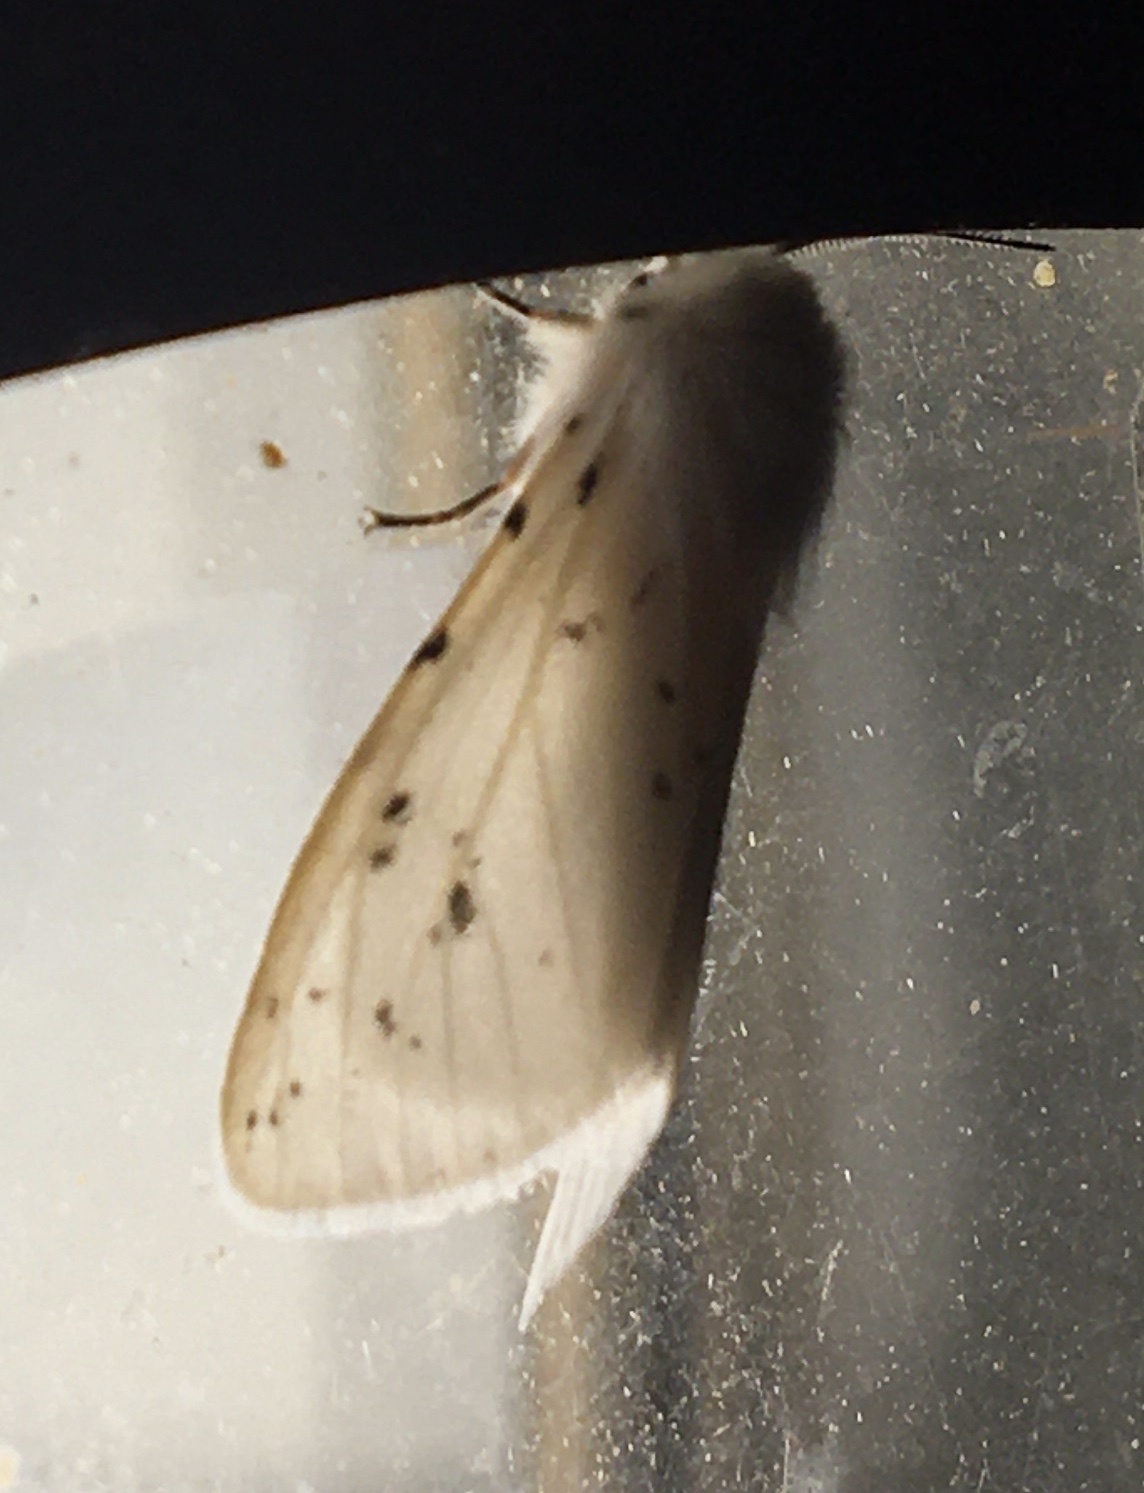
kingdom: Animalia
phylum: Arthropoda
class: Insecta
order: Lepidoptera
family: Erebidae
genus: Hyphantria
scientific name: Hyphantria cunea
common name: American white moth
